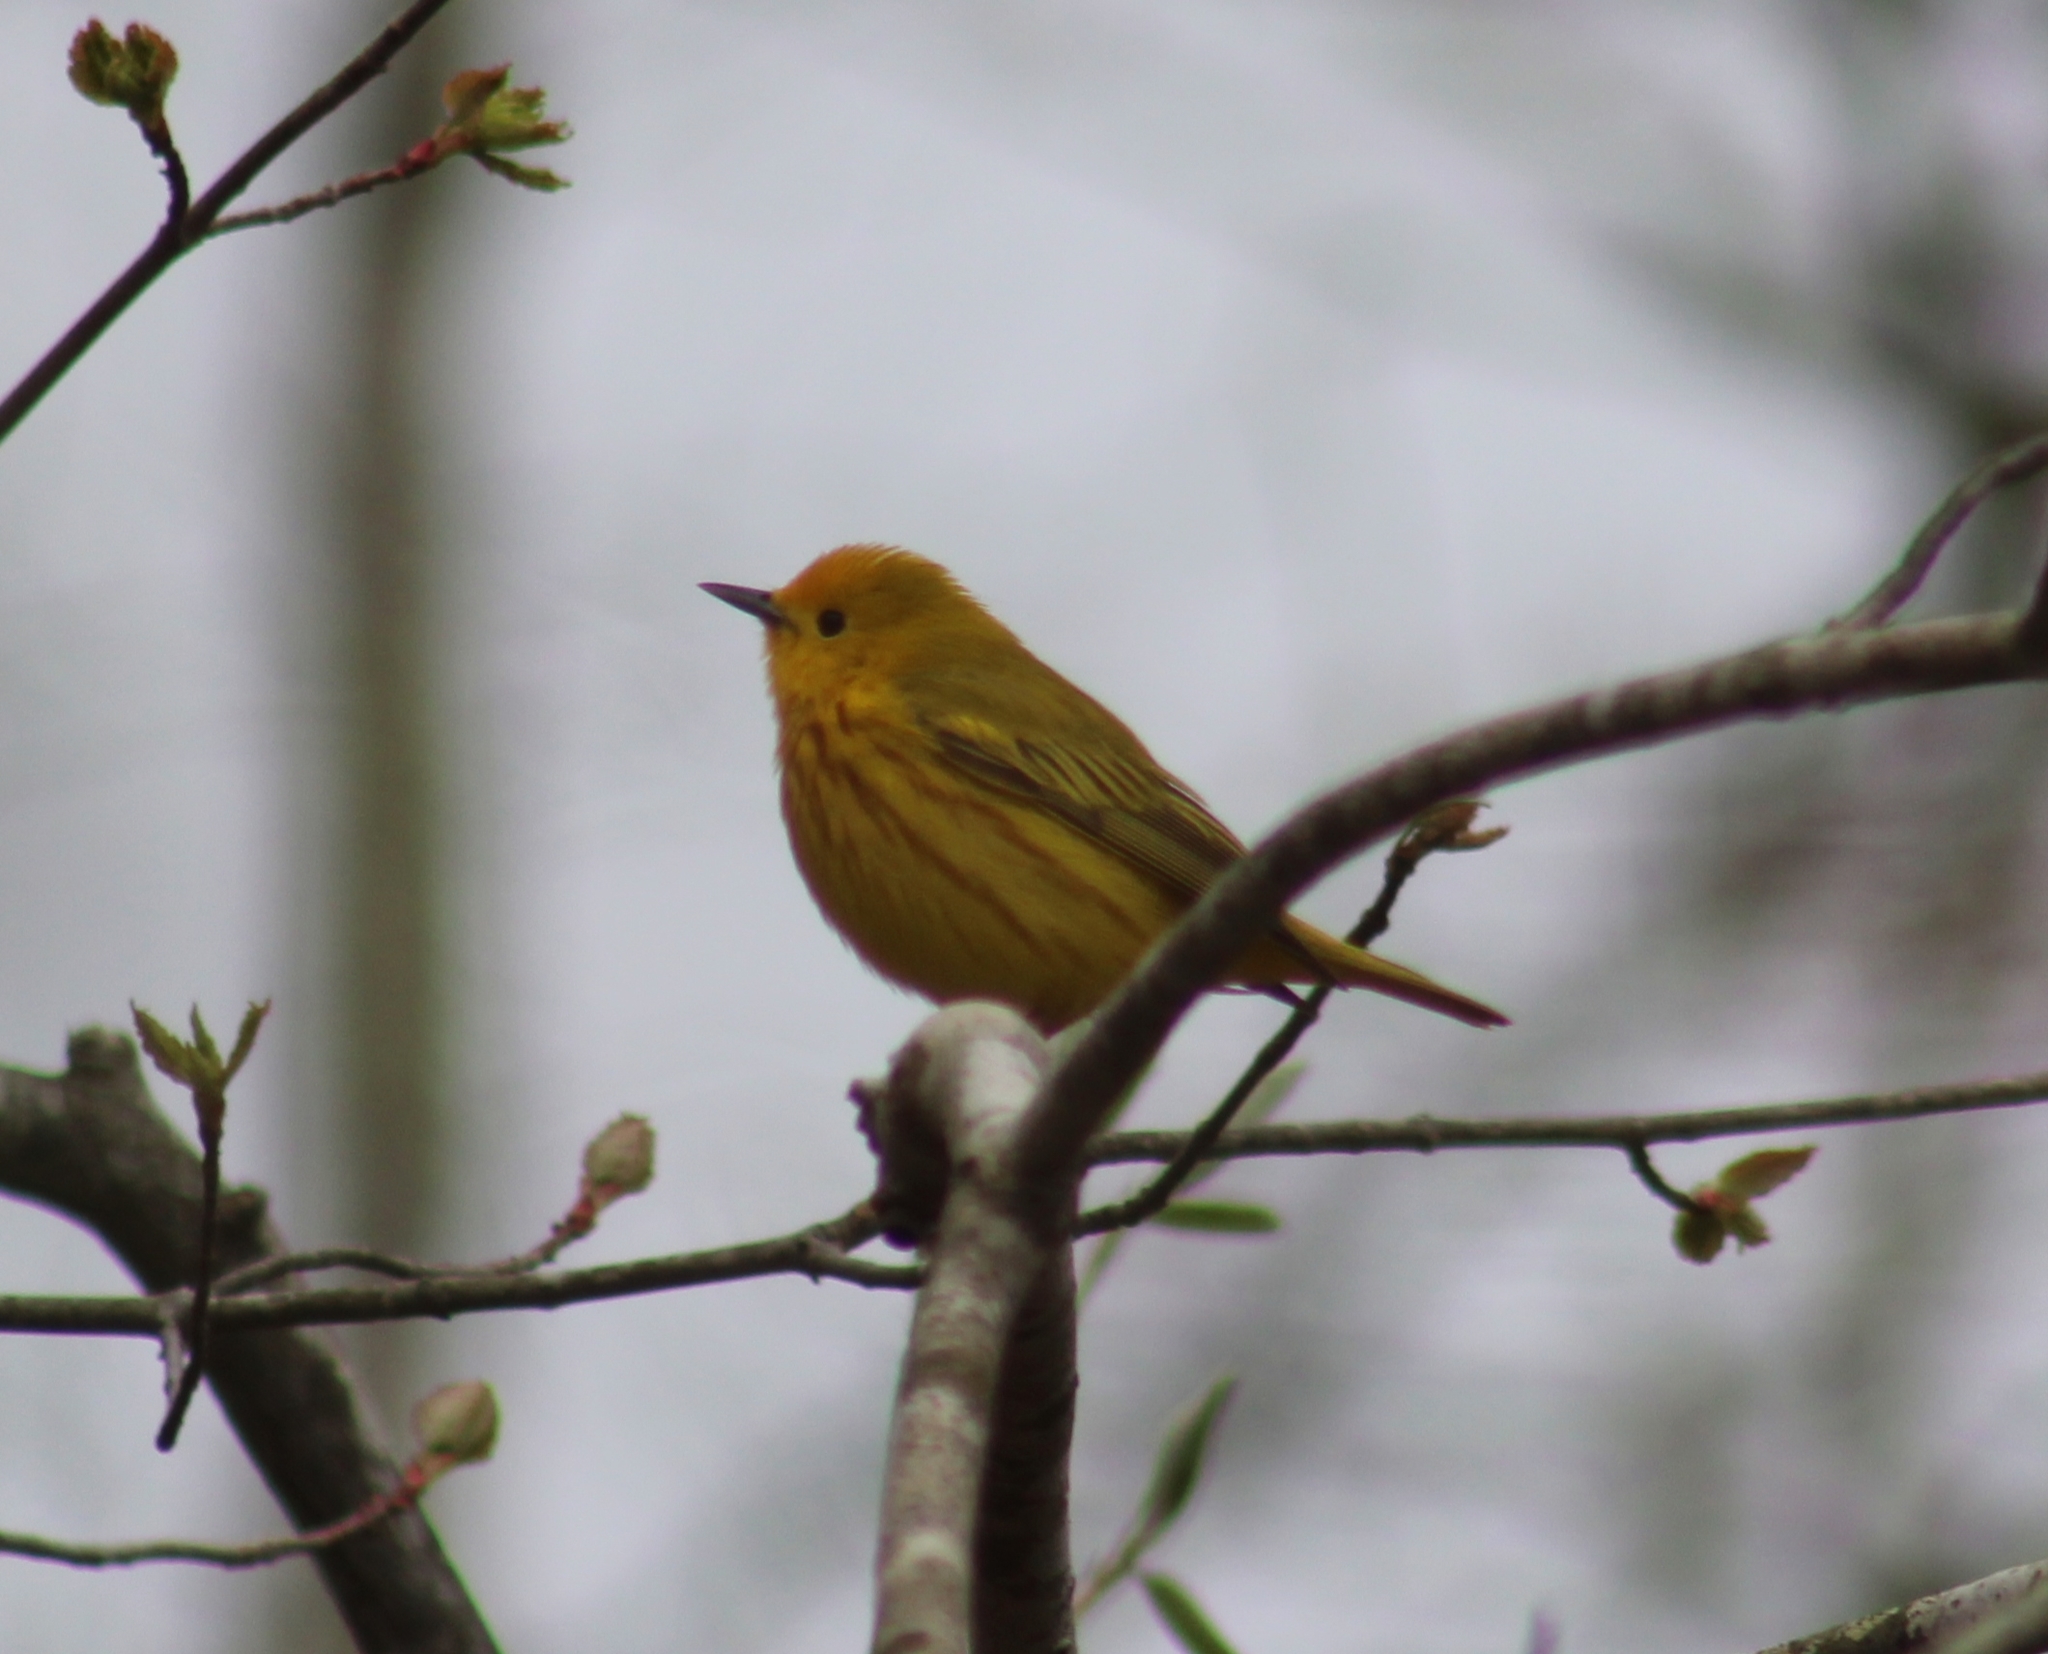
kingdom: Animalia
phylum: Chordata
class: Aves
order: Passeriformes
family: Parulidae
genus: Setophaga
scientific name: Setophaga petechia
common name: Yellow warbler
